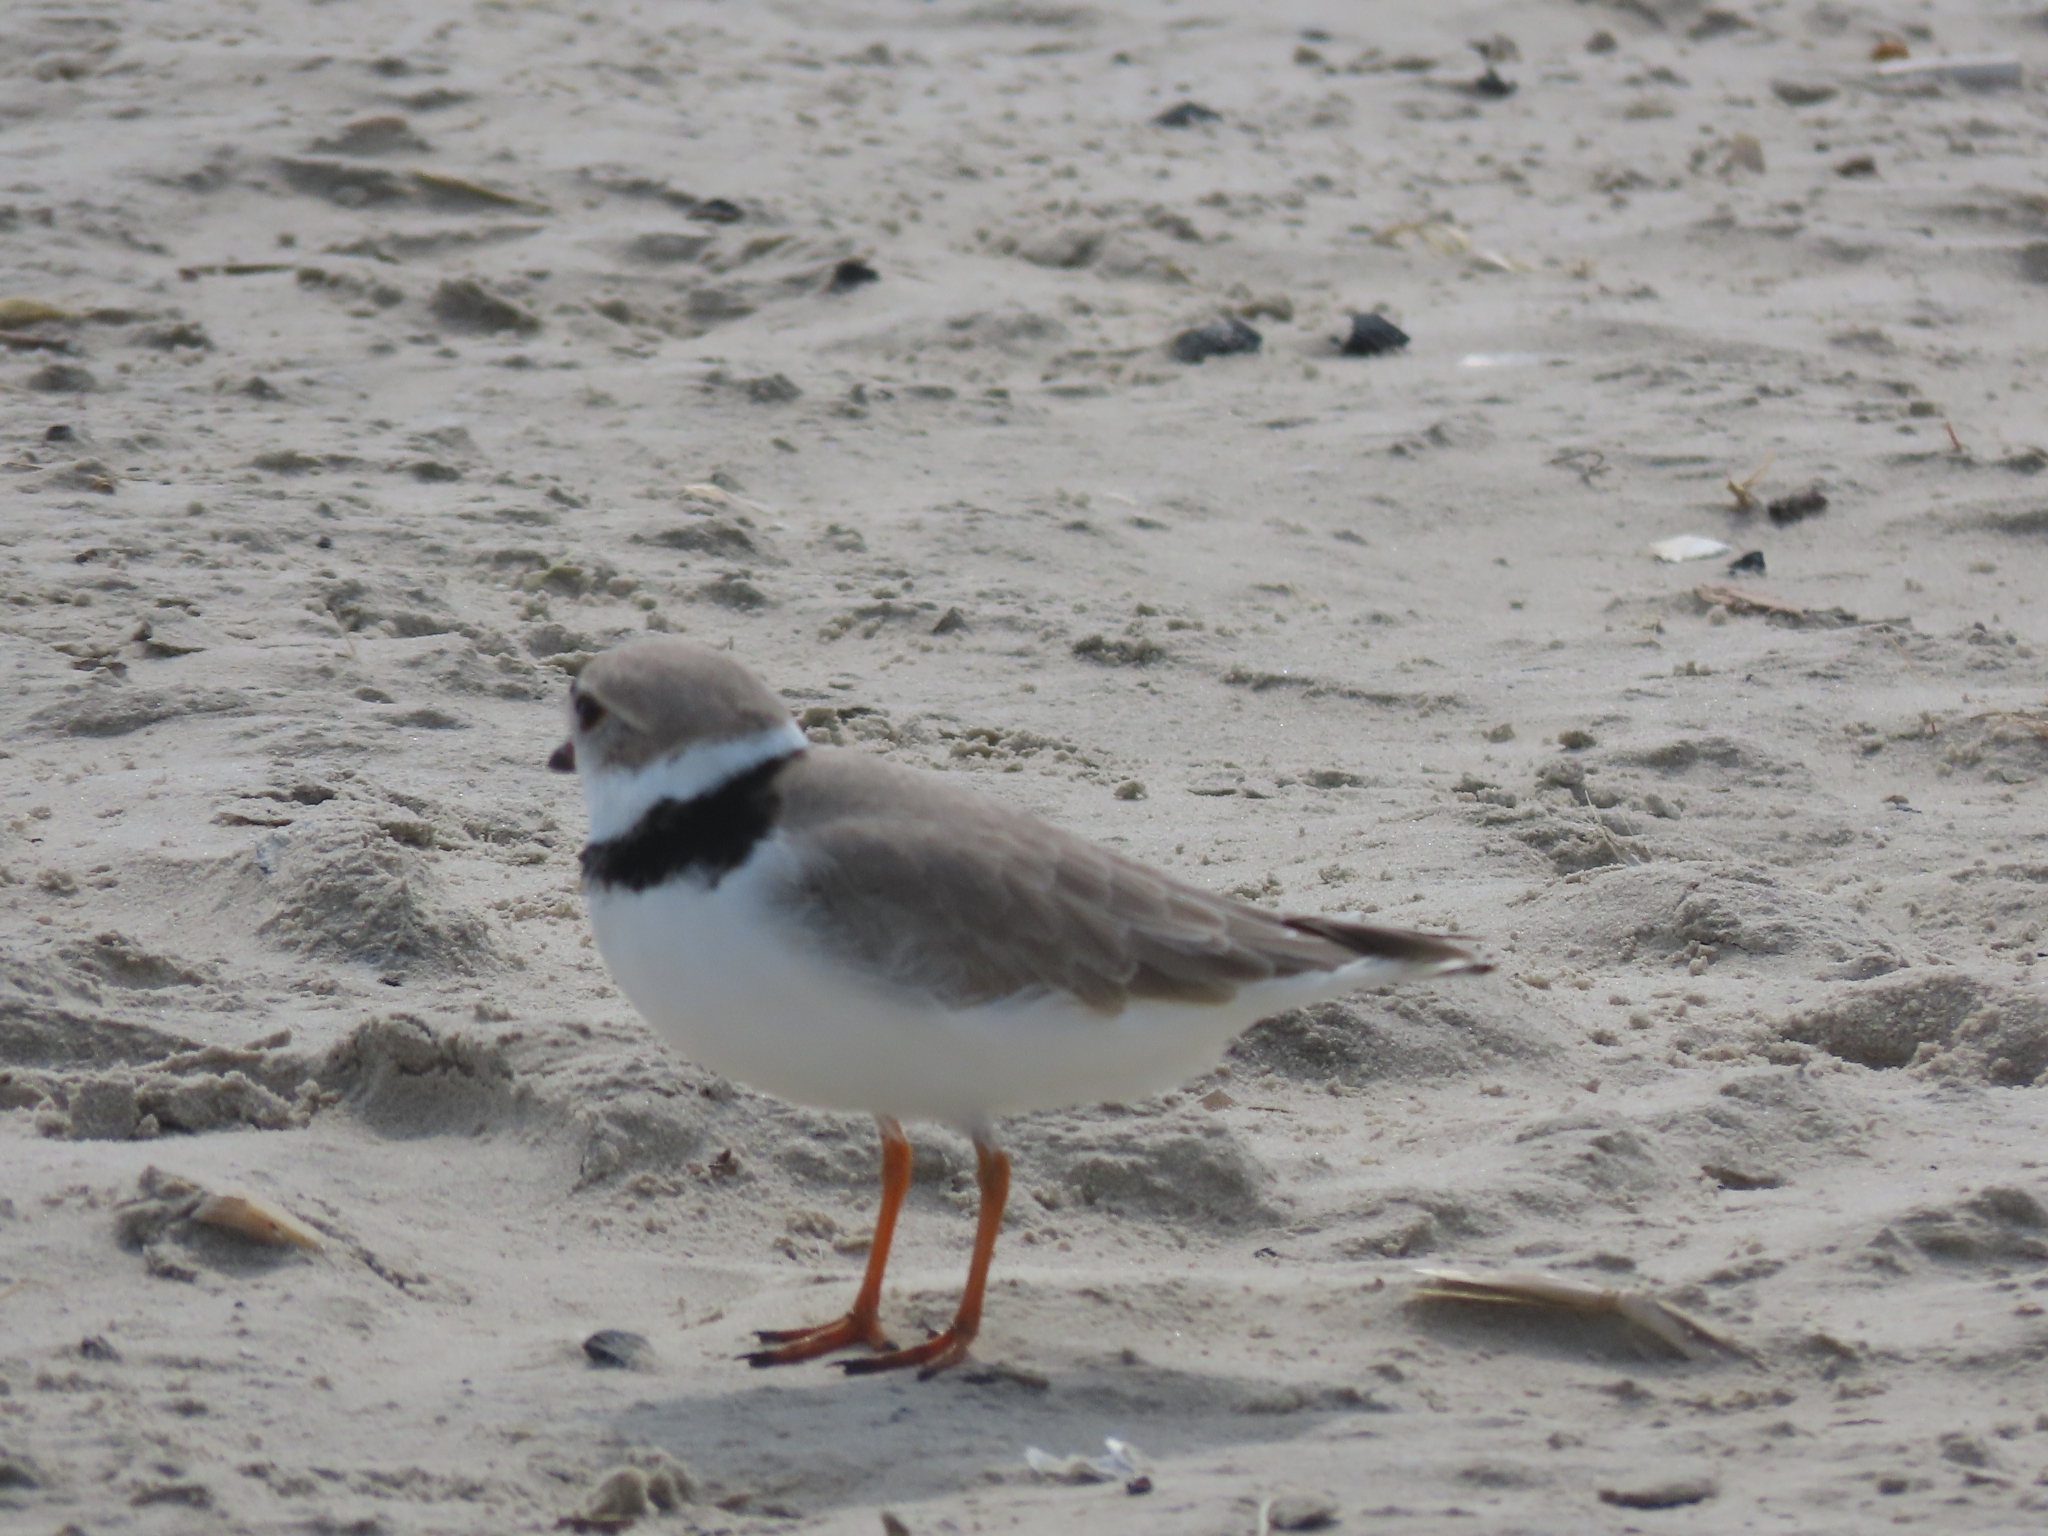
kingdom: Animalia
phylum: Chordata
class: Aves
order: Charadriiformes
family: Charadriidae
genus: Charadrius
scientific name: Charadrius melodus
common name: Piping plover
